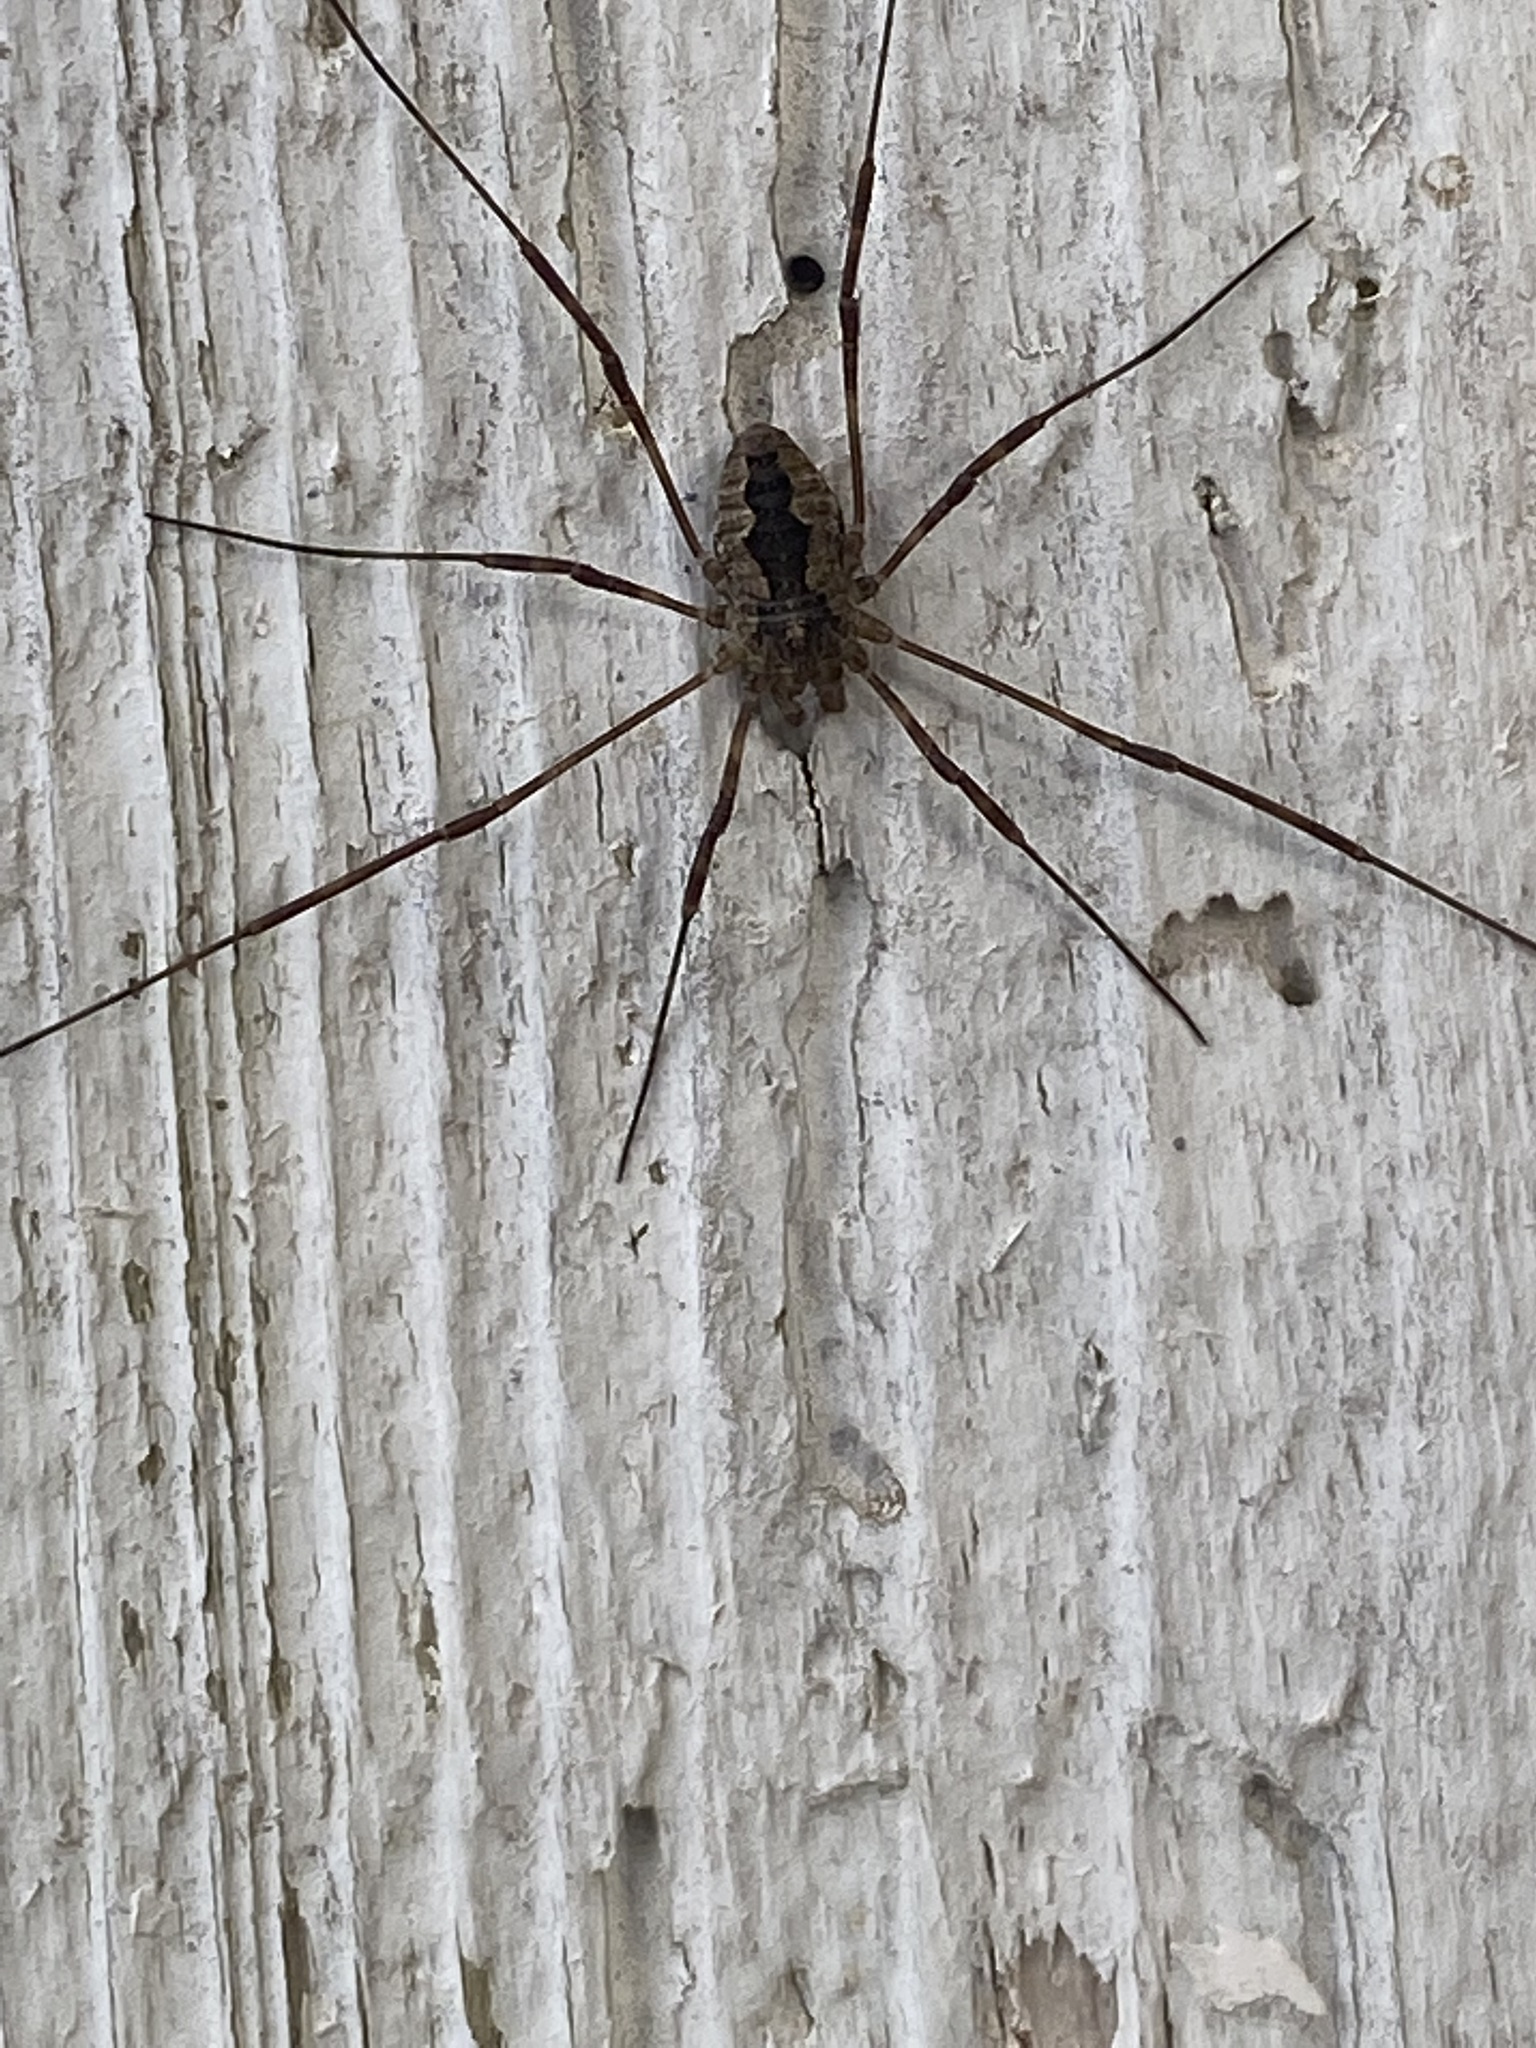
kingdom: Animalia
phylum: Arthropoda
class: Arachnida
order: Opiliones
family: Phalangiidae
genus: Odiellus
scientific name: Odiellus pictus
